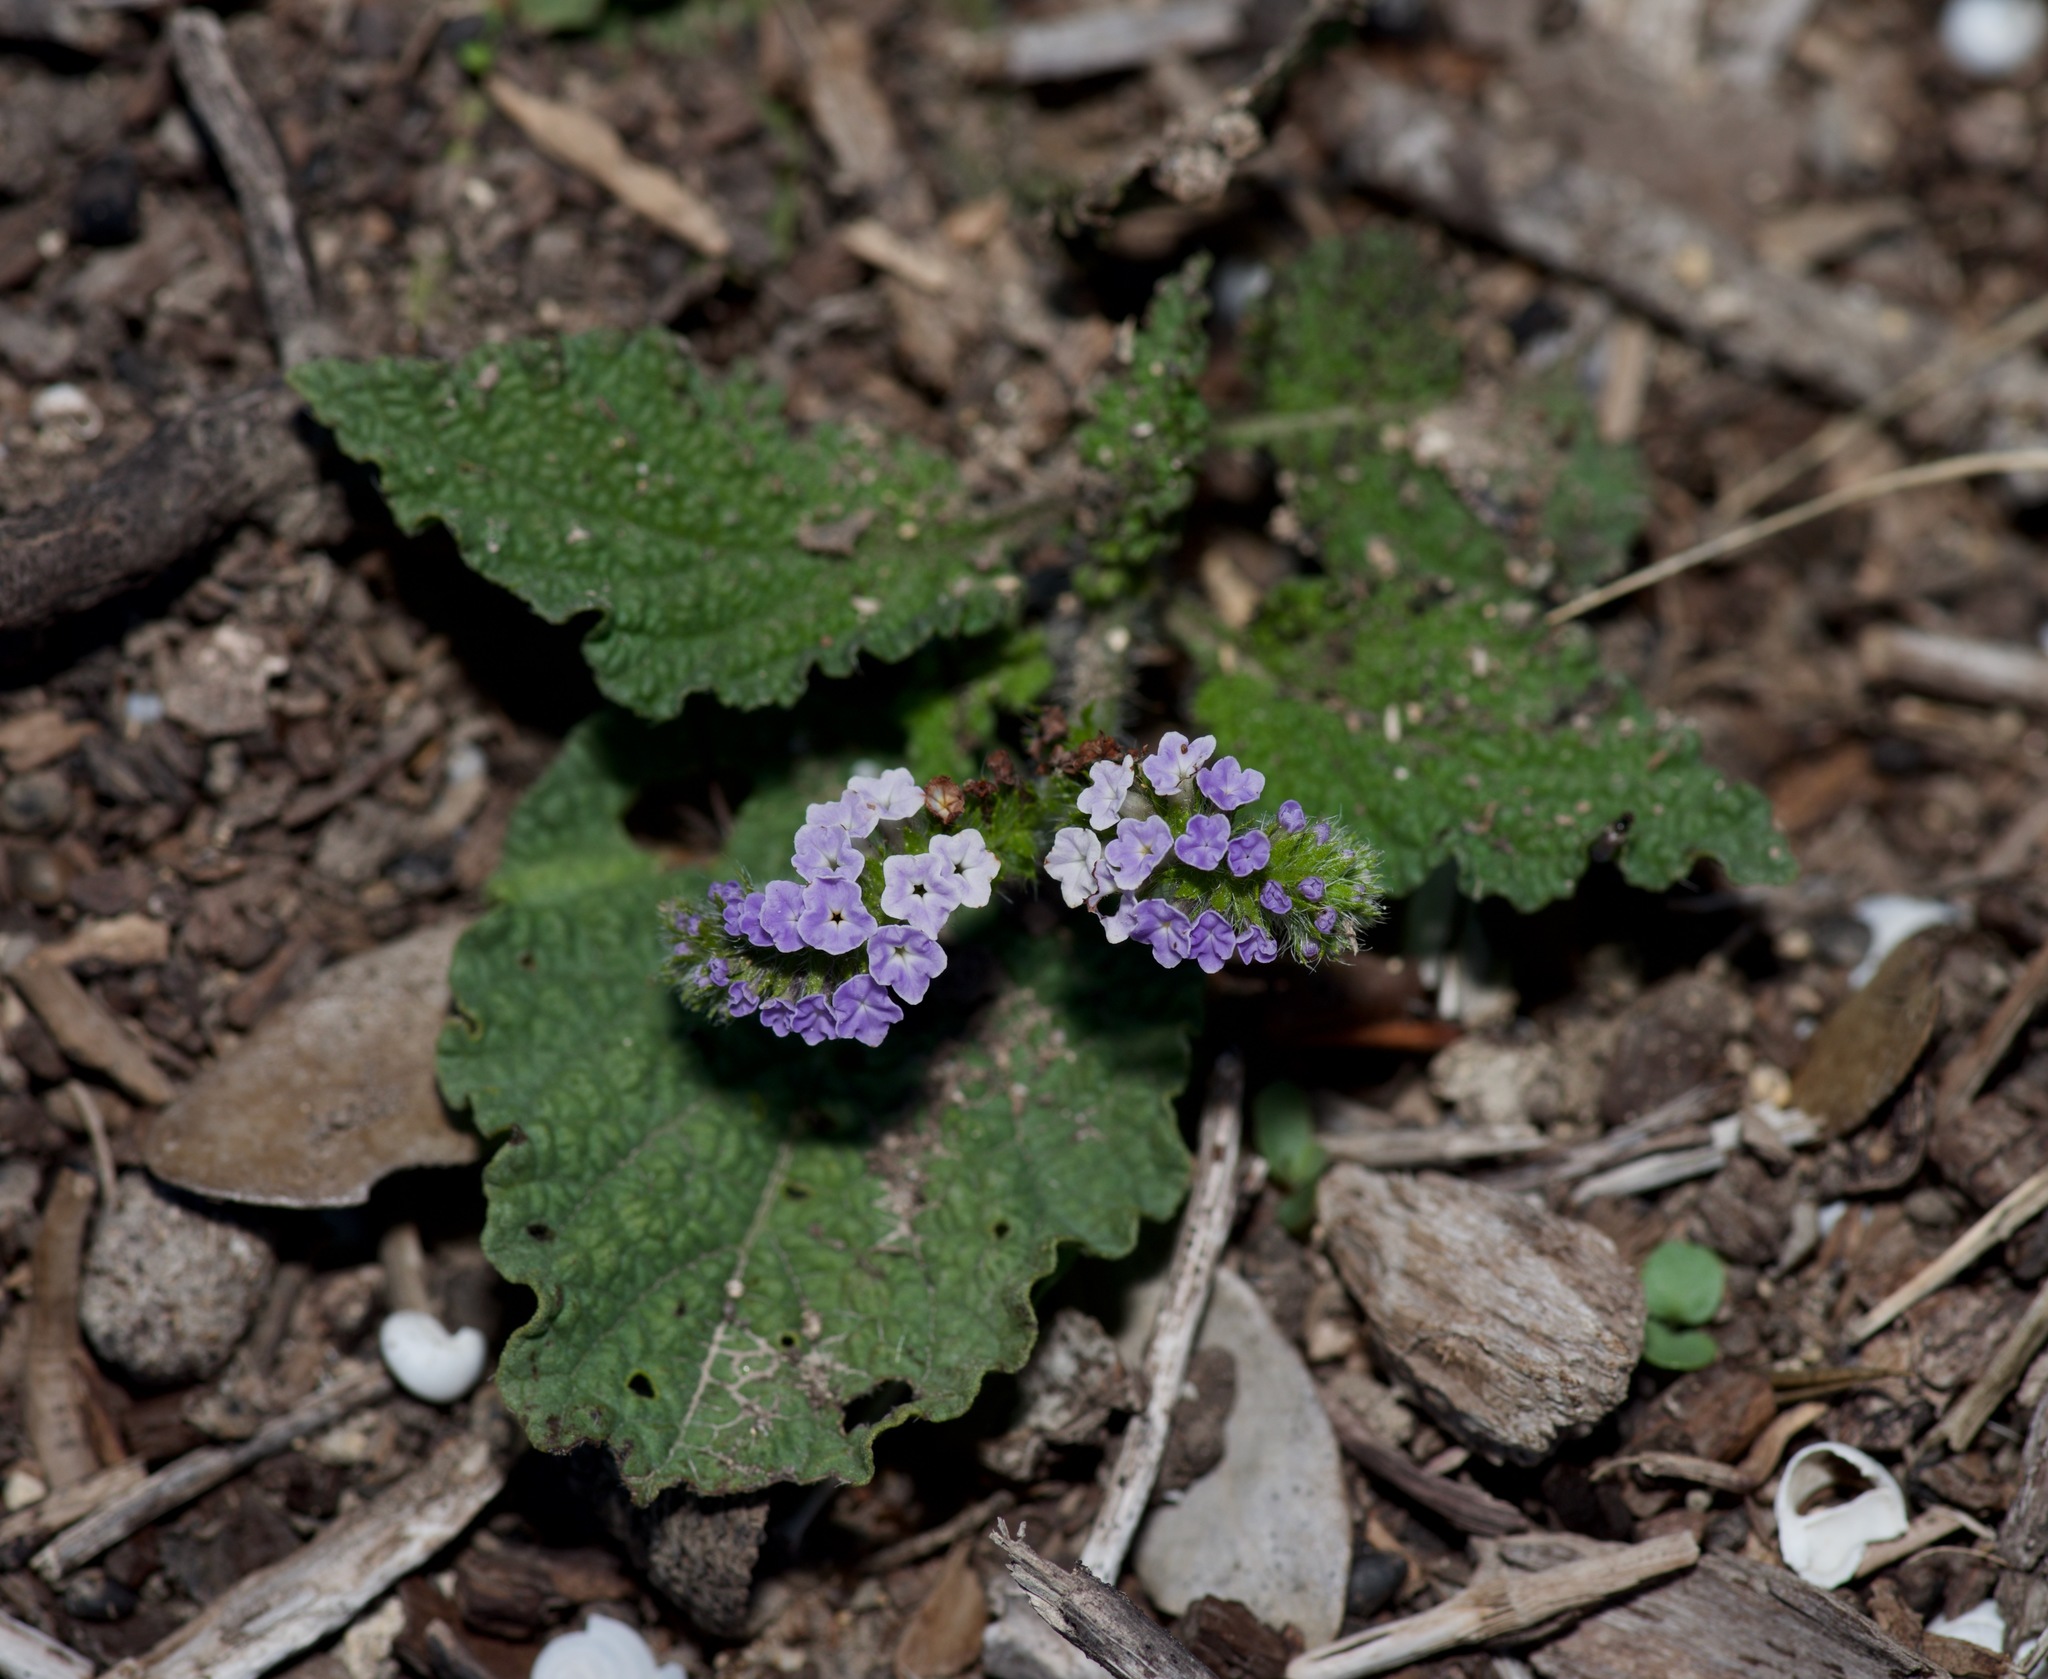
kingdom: Plantae
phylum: Tracheophyta
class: Magnoliopsida
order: Boraginales
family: Heliotropiaceae
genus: Heliotropium
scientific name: Heliotropium indicum
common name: Indian heliotrope
